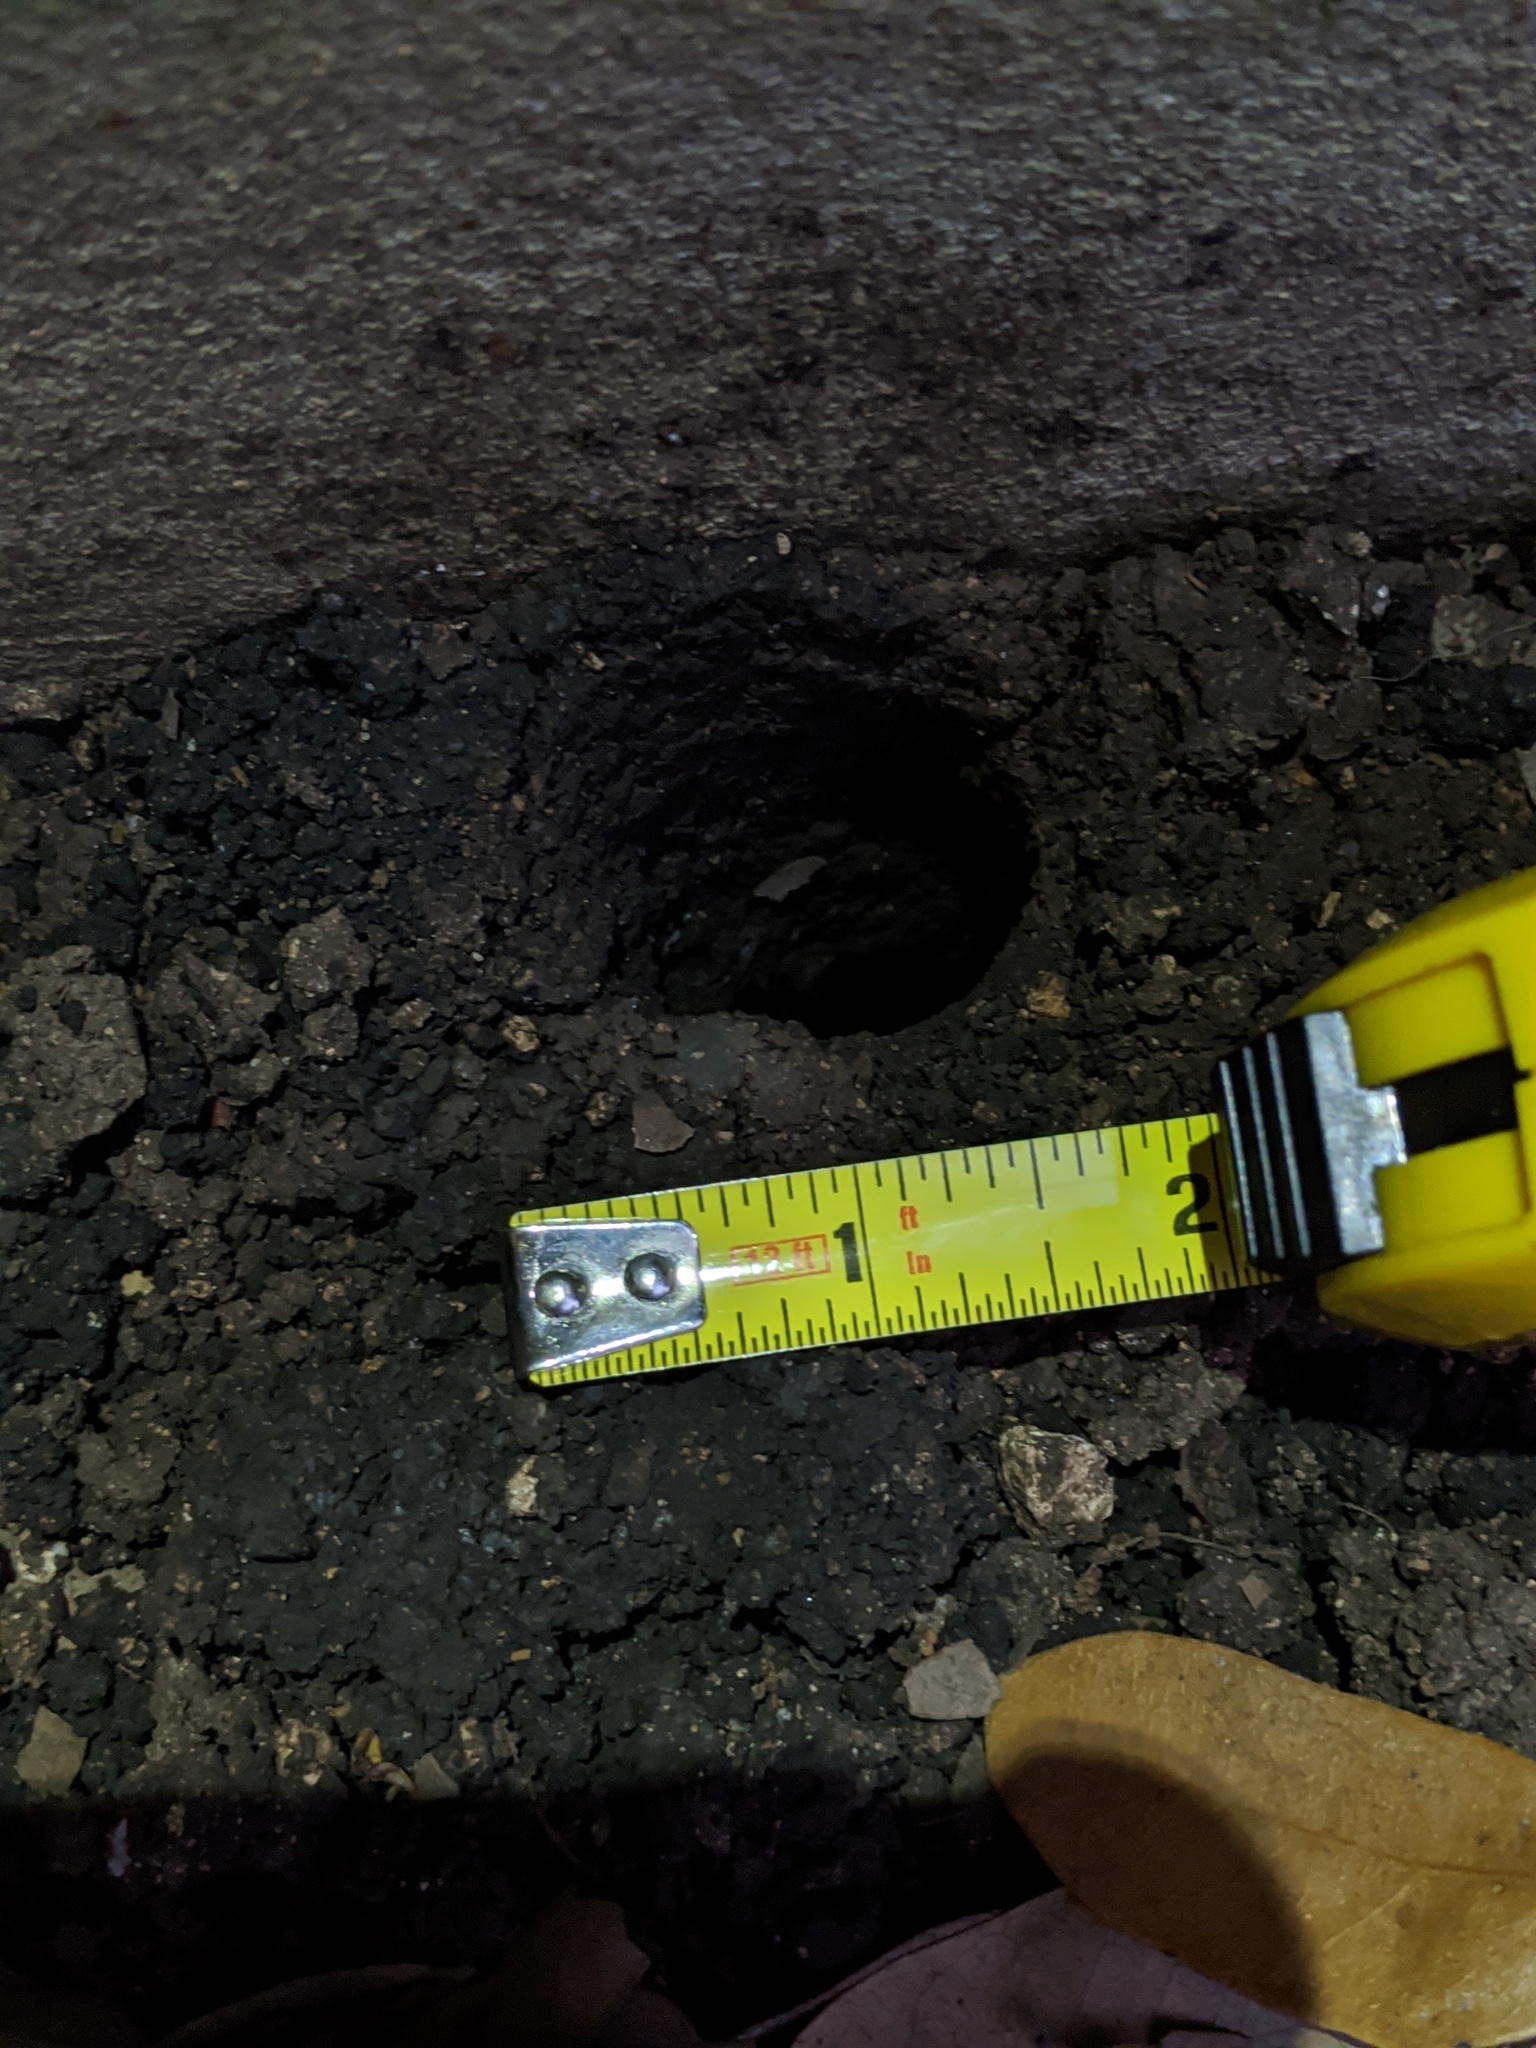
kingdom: Animalia
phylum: Arthropoda
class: Insecta
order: Coleoptera
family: Scarabaeidae
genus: Strategus
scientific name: Strategus aloeus
